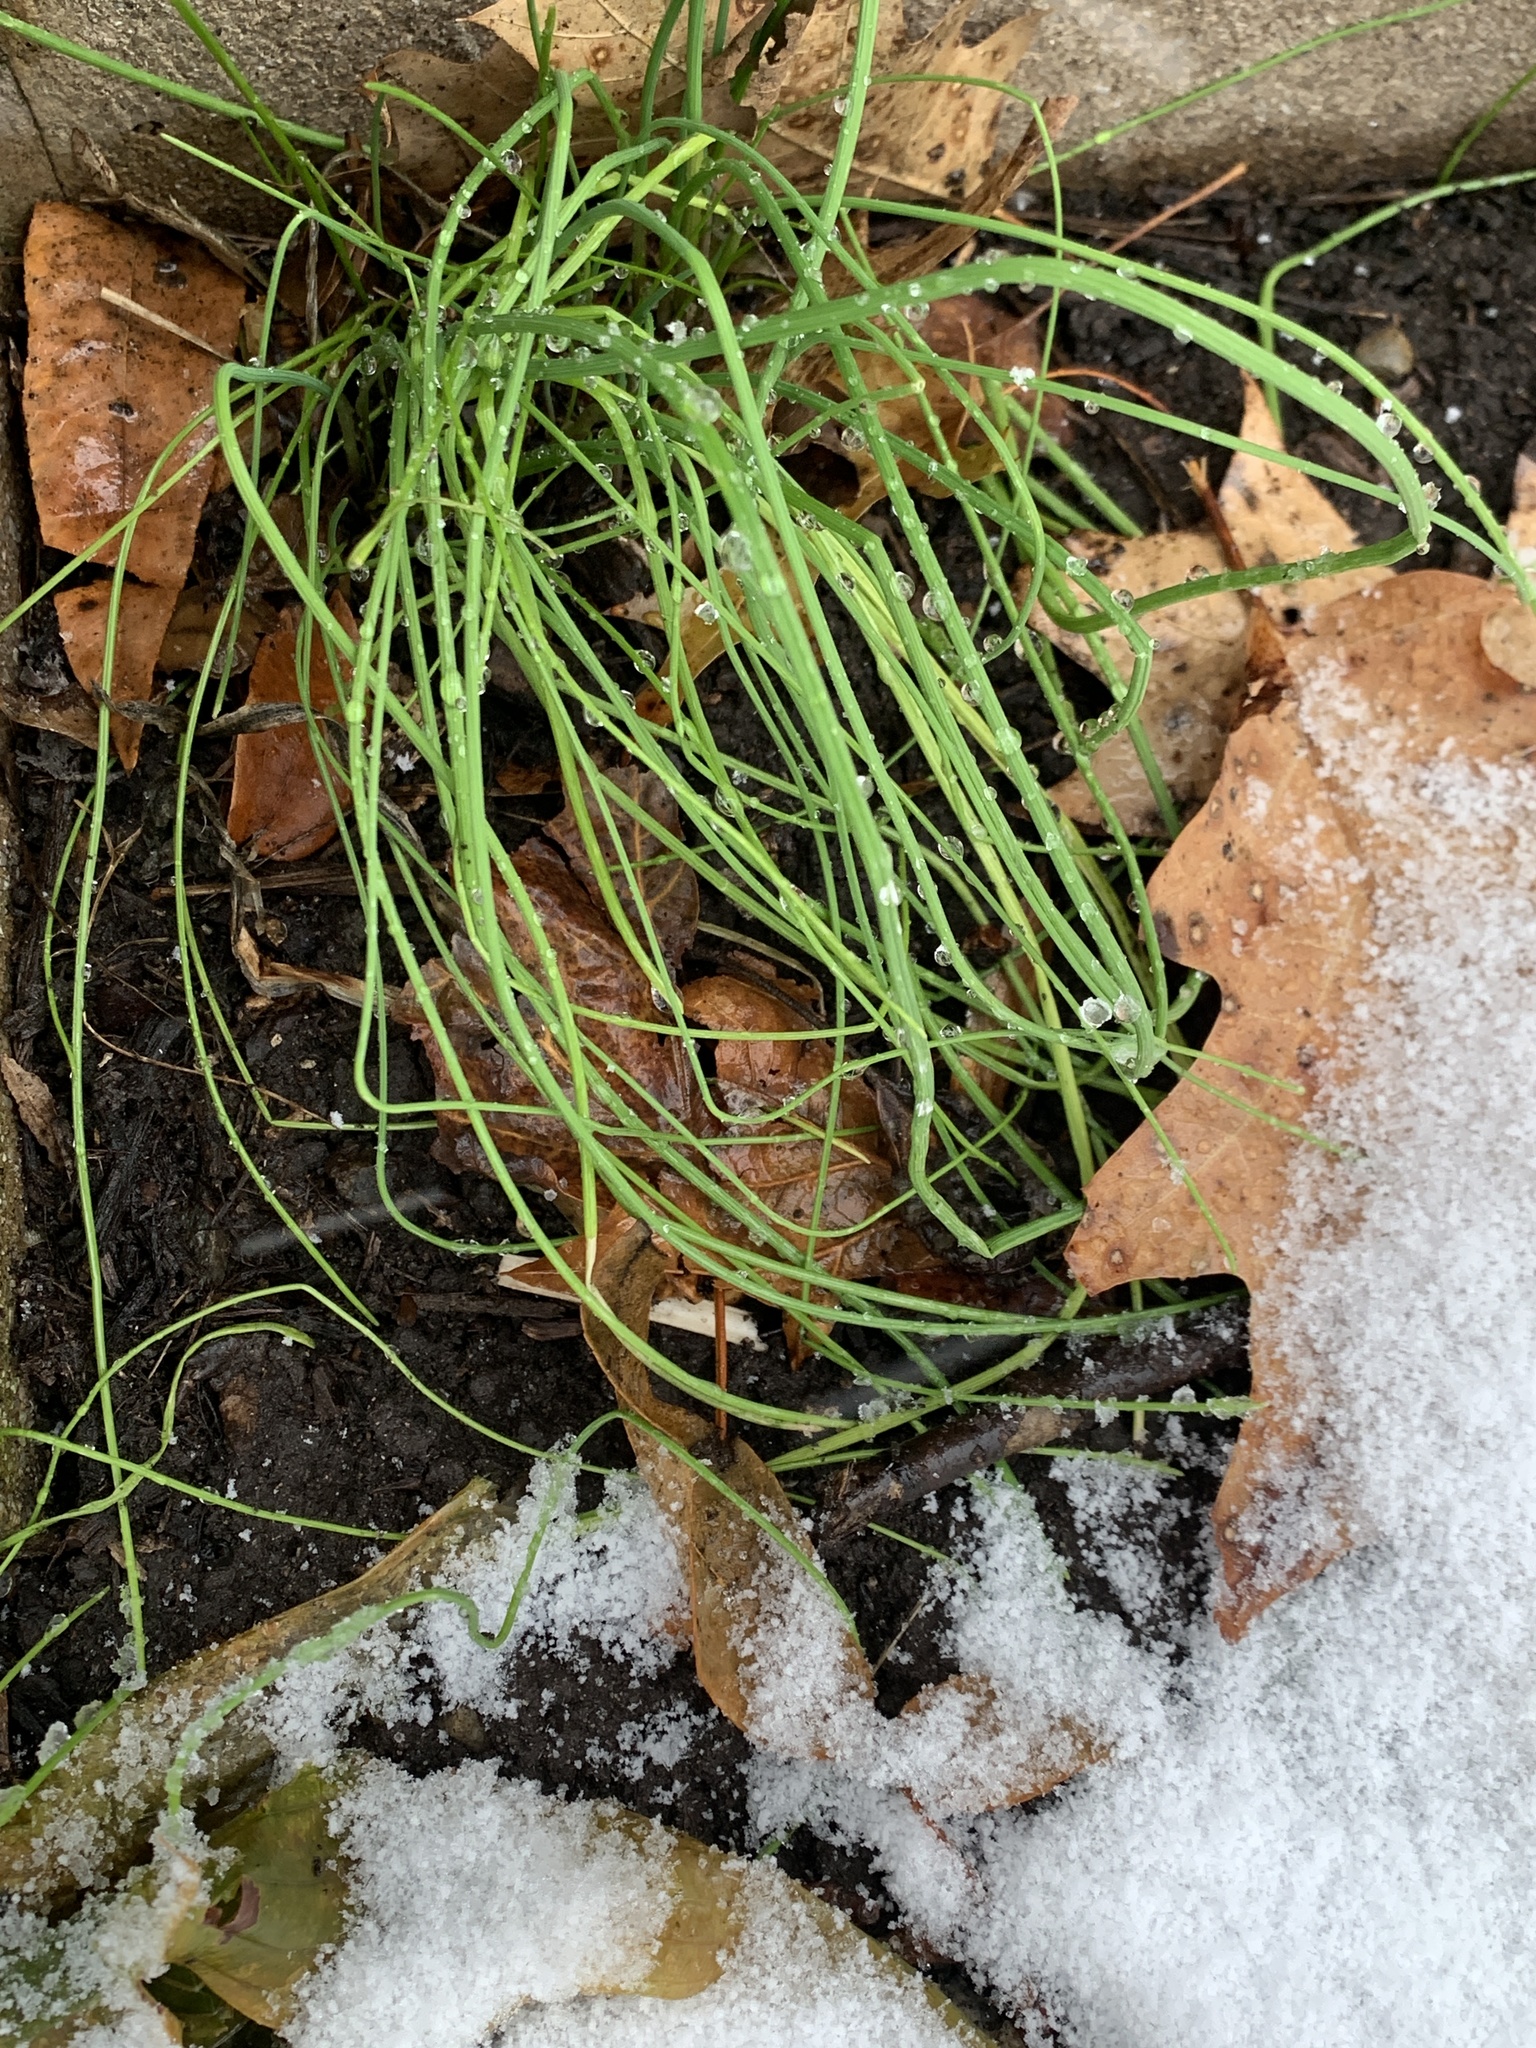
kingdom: Plantae
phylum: Tracheophyta
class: Liliopsida
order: Asparagales
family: Amaryllidaceae
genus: Allium
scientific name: Allium vineale
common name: Crow garlic
